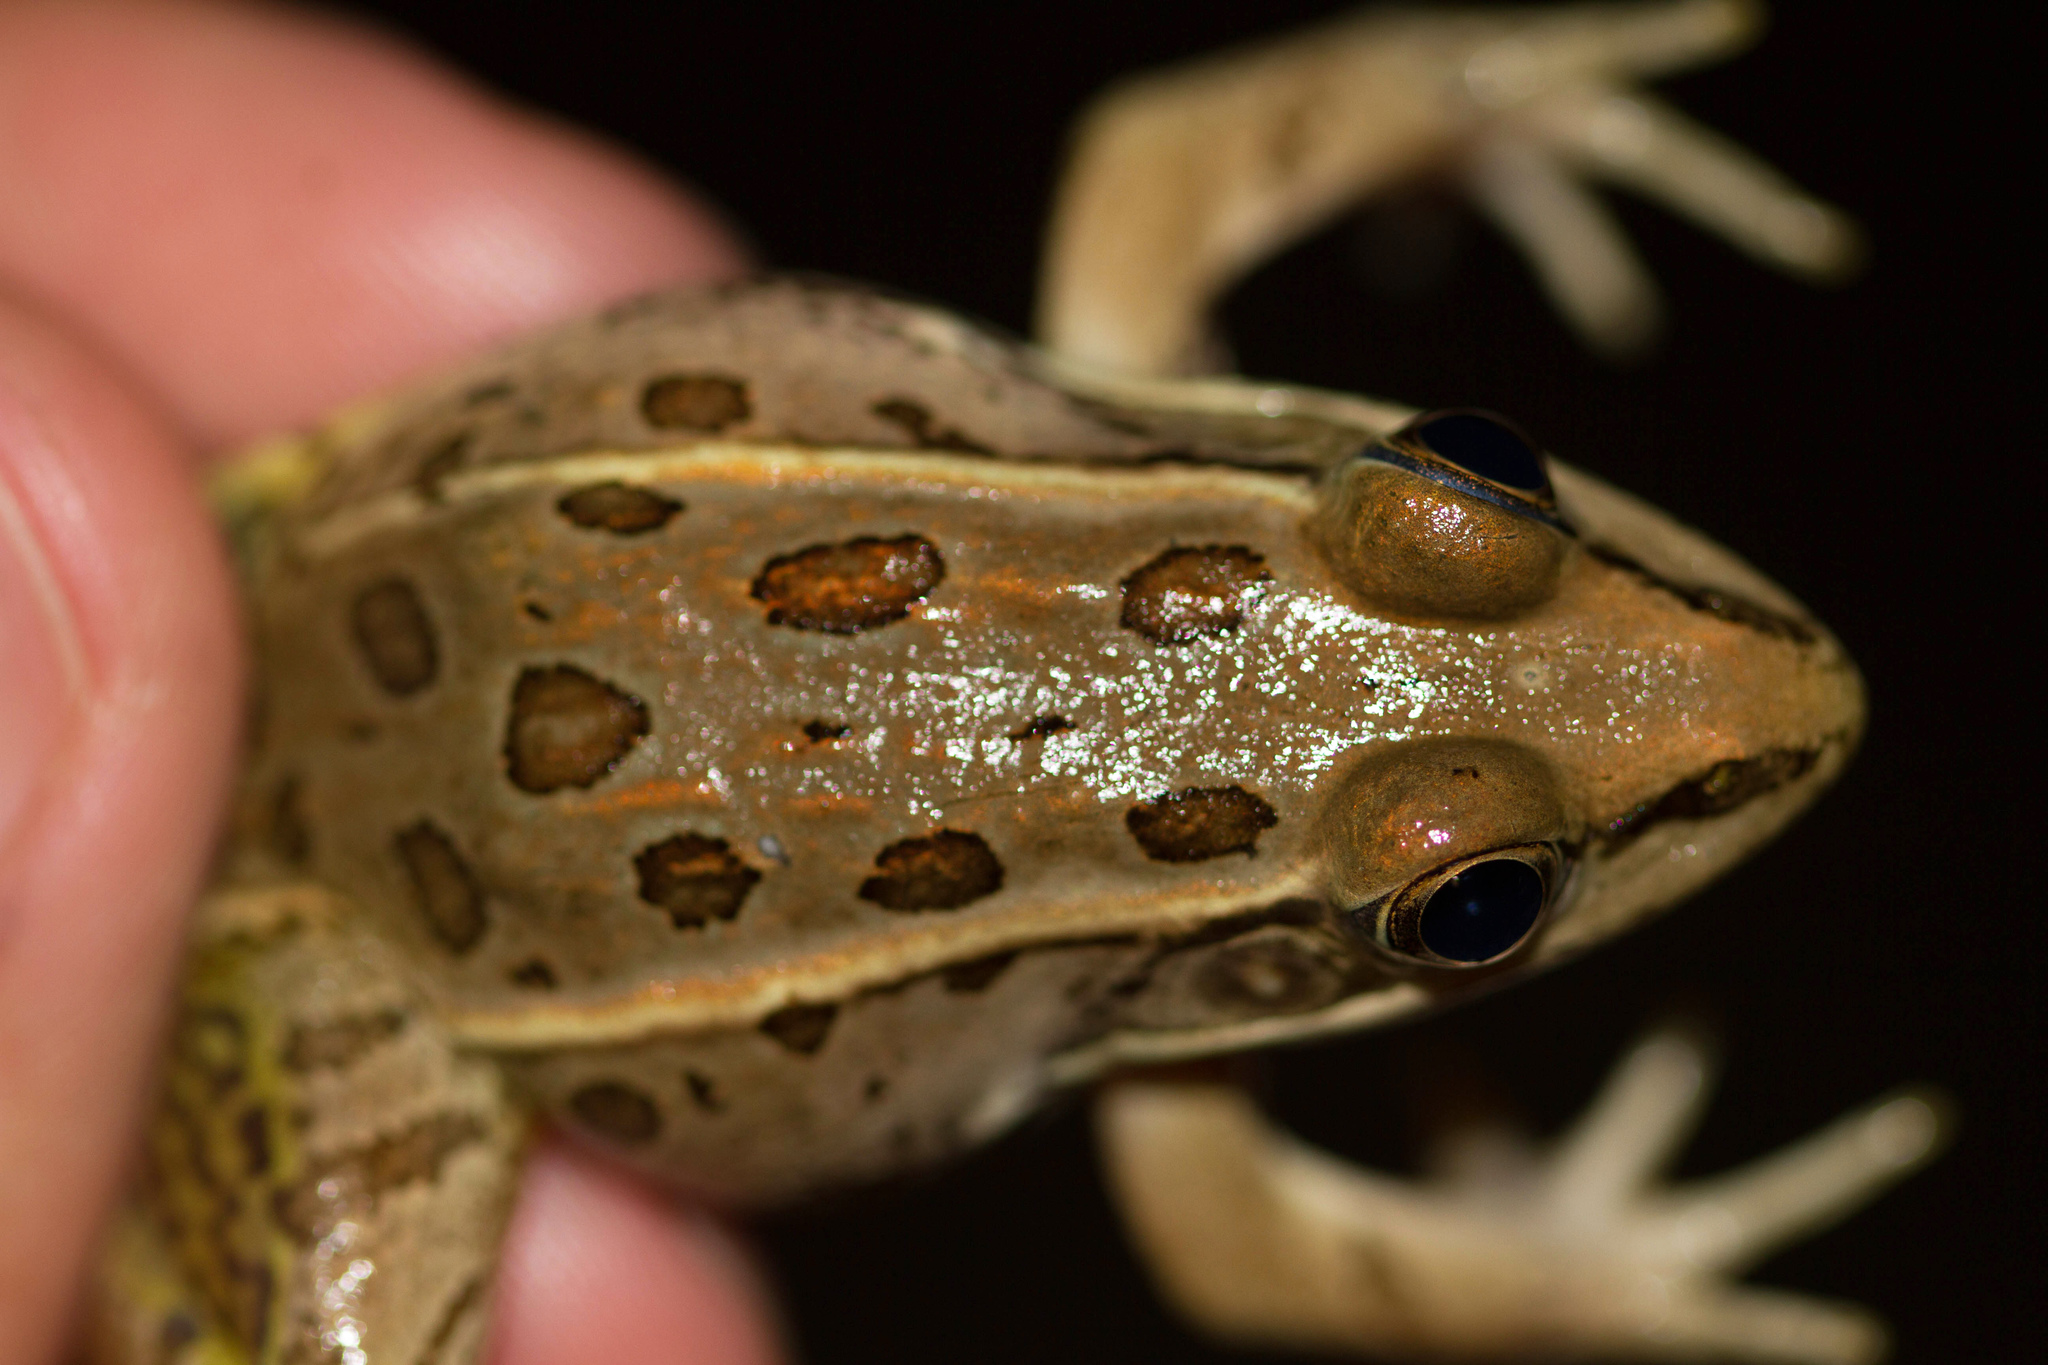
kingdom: Animalia
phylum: Chordata
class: Amphibia
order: Anura
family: Ranidae
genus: Lithobates
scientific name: Lithobates berlandieri
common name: Rio grande leopard frog
